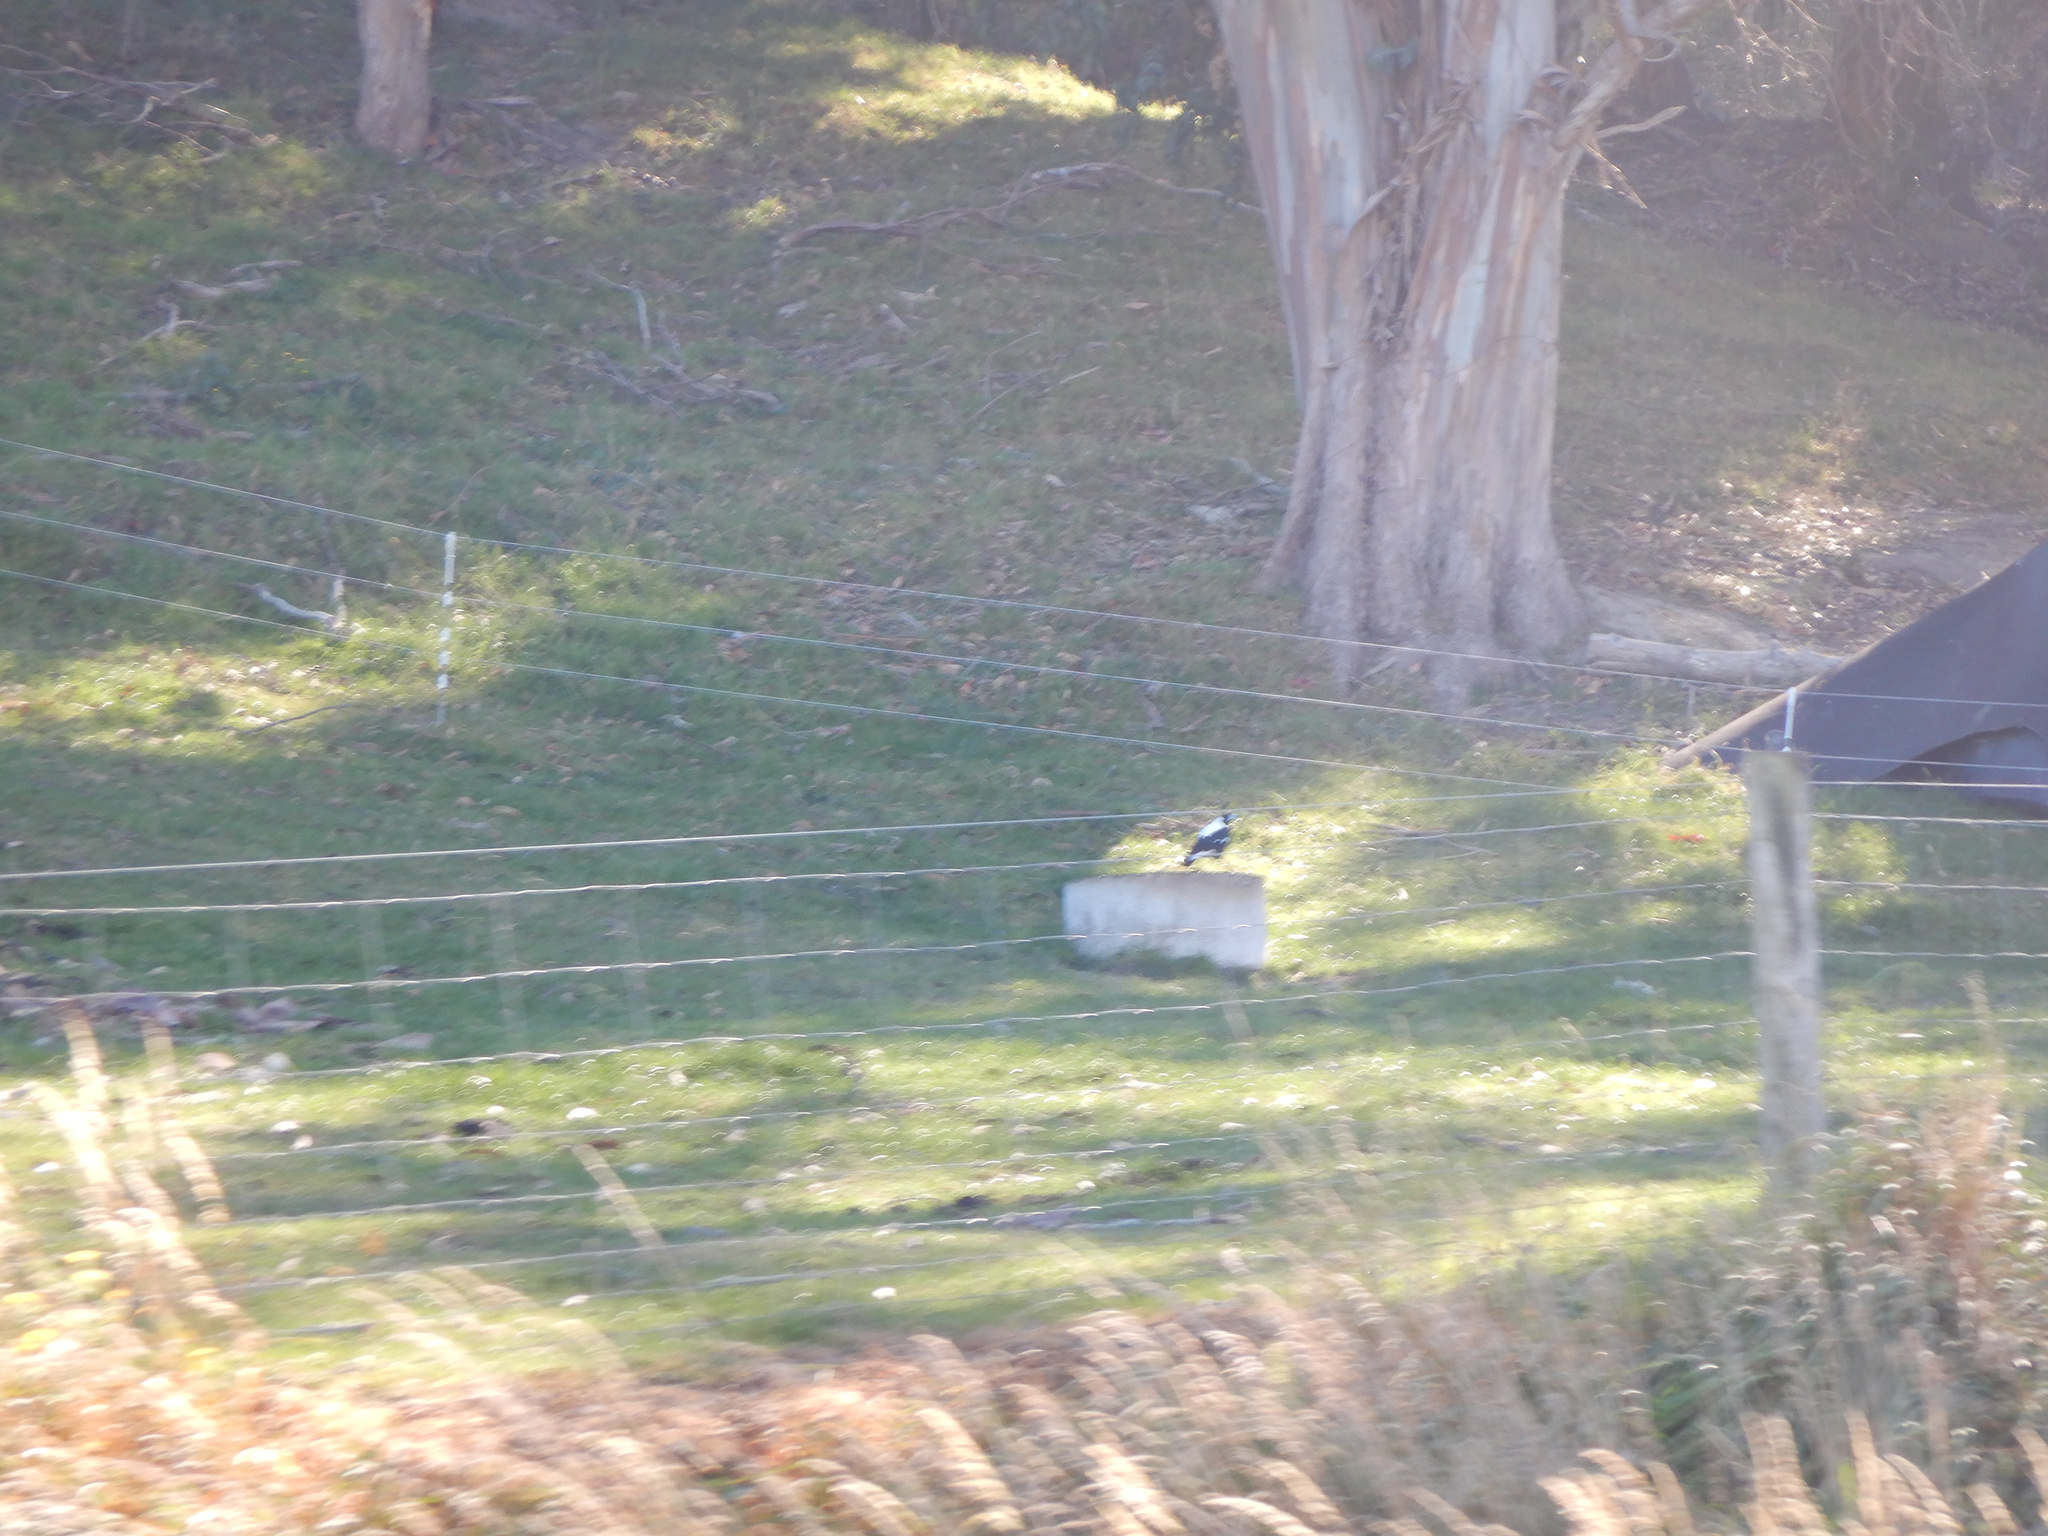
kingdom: Animalia
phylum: Chordata
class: Aves
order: Passeriformes
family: Cracticidae
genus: Gymnorhina
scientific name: Gymnorhina tibicen
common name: Australian magpie
